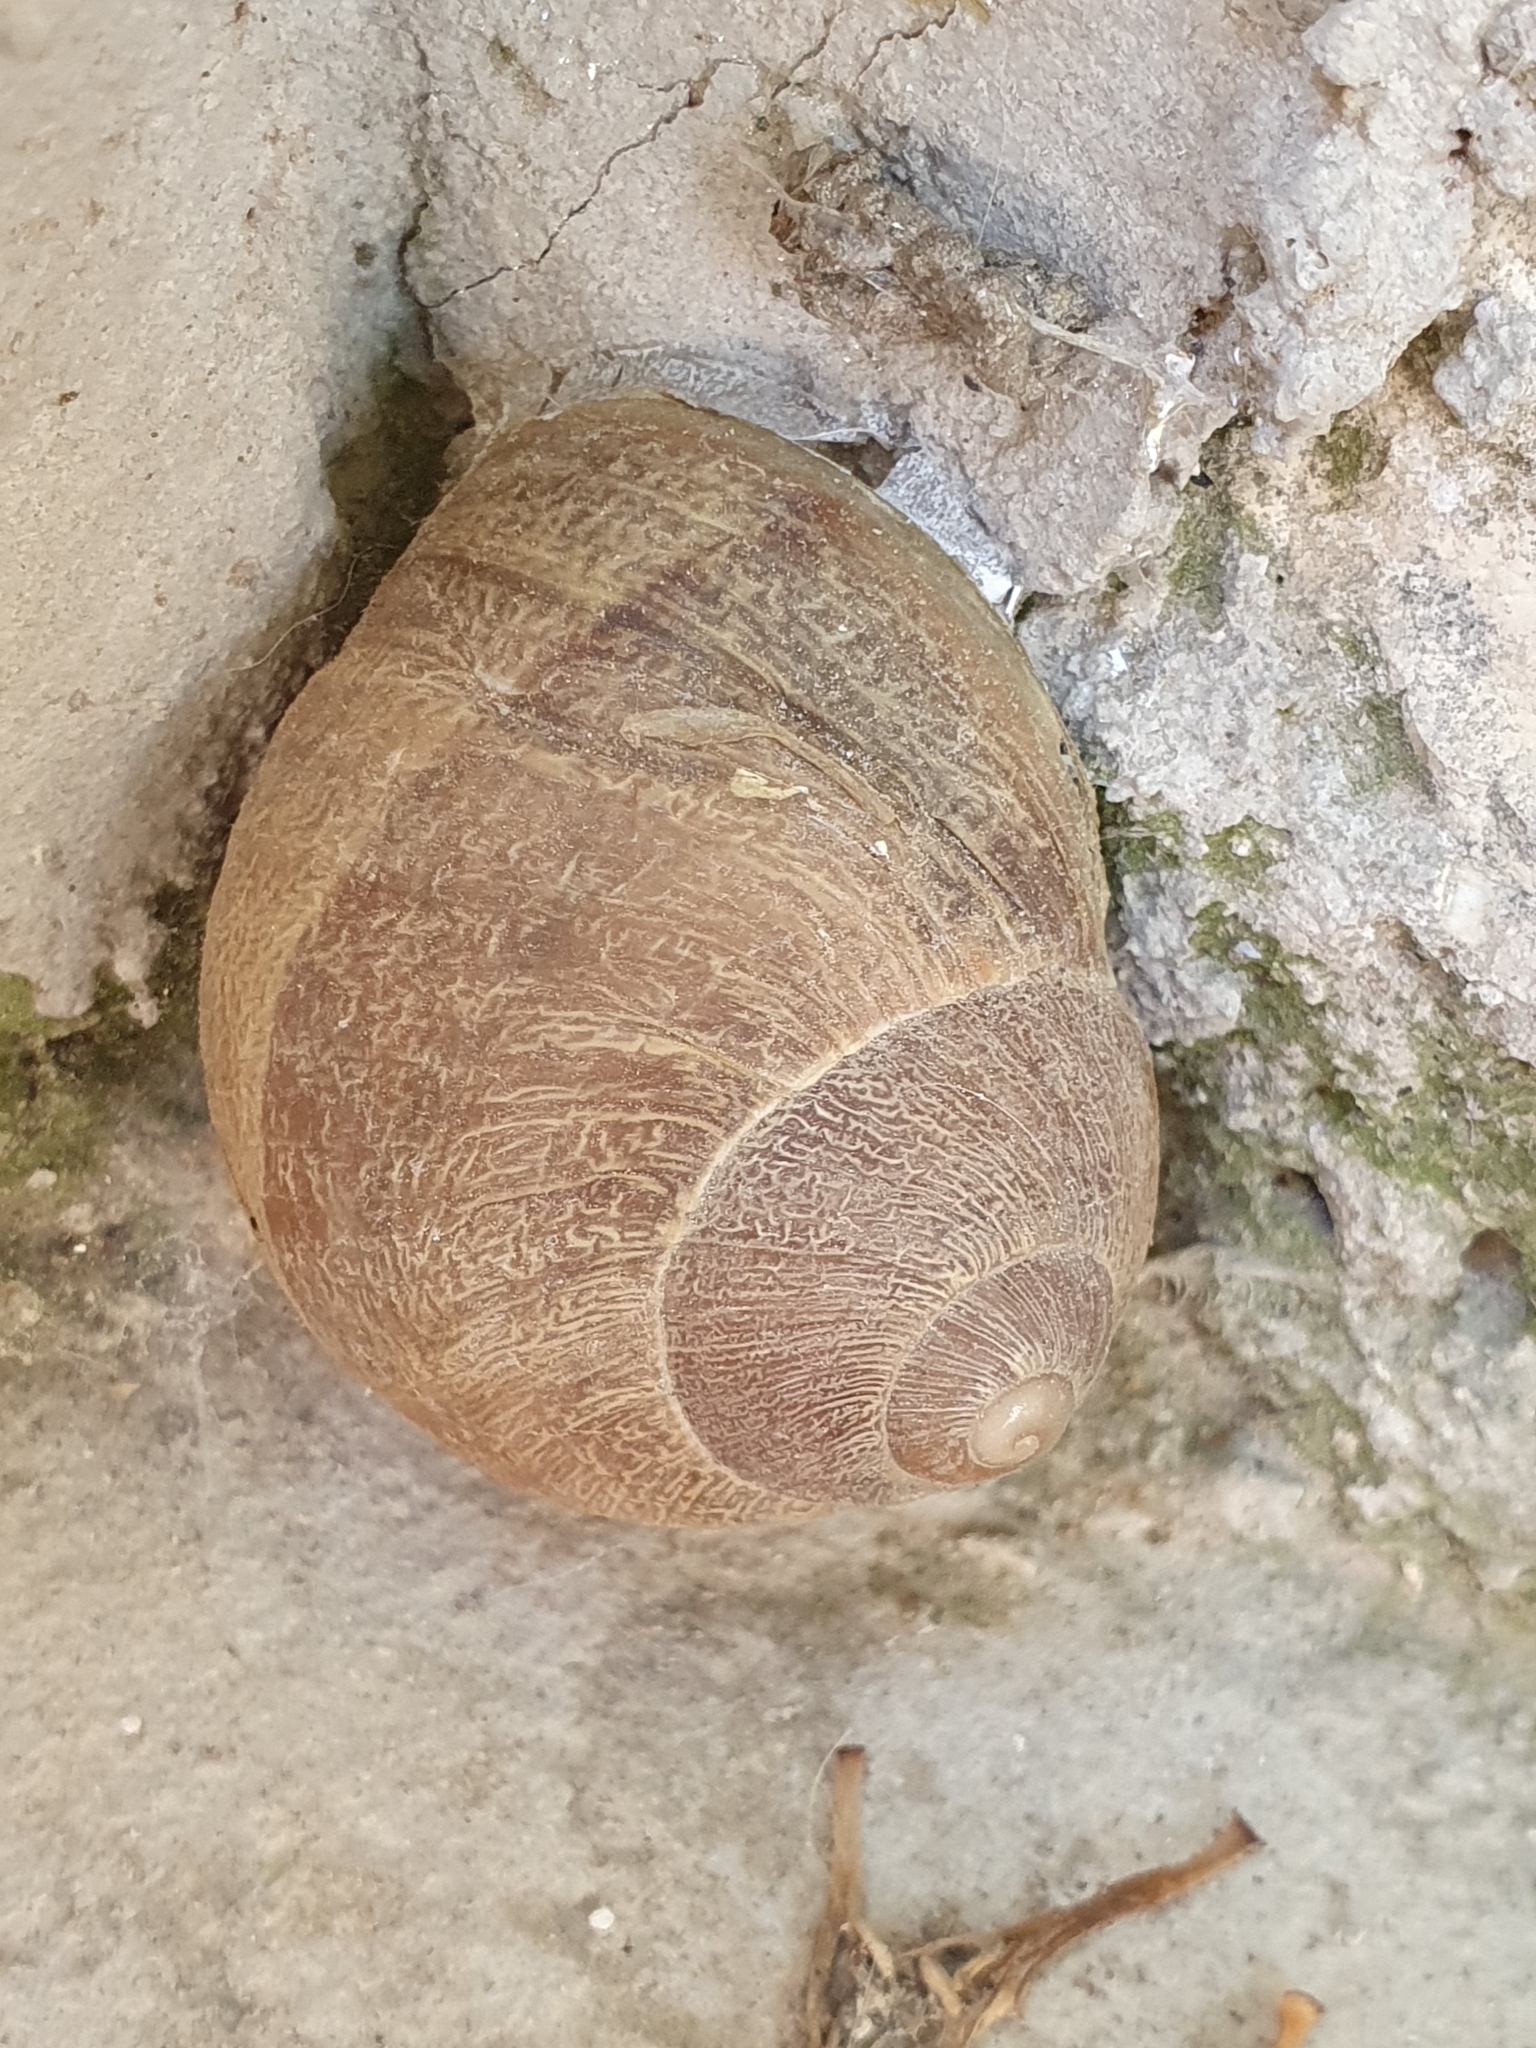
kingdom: Animalia
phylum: Mollusca
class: Gastropoda
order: Stylommatophora
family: Helicidae
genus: Cornu
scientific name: Cornu aspersum
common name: Brown garden snail
